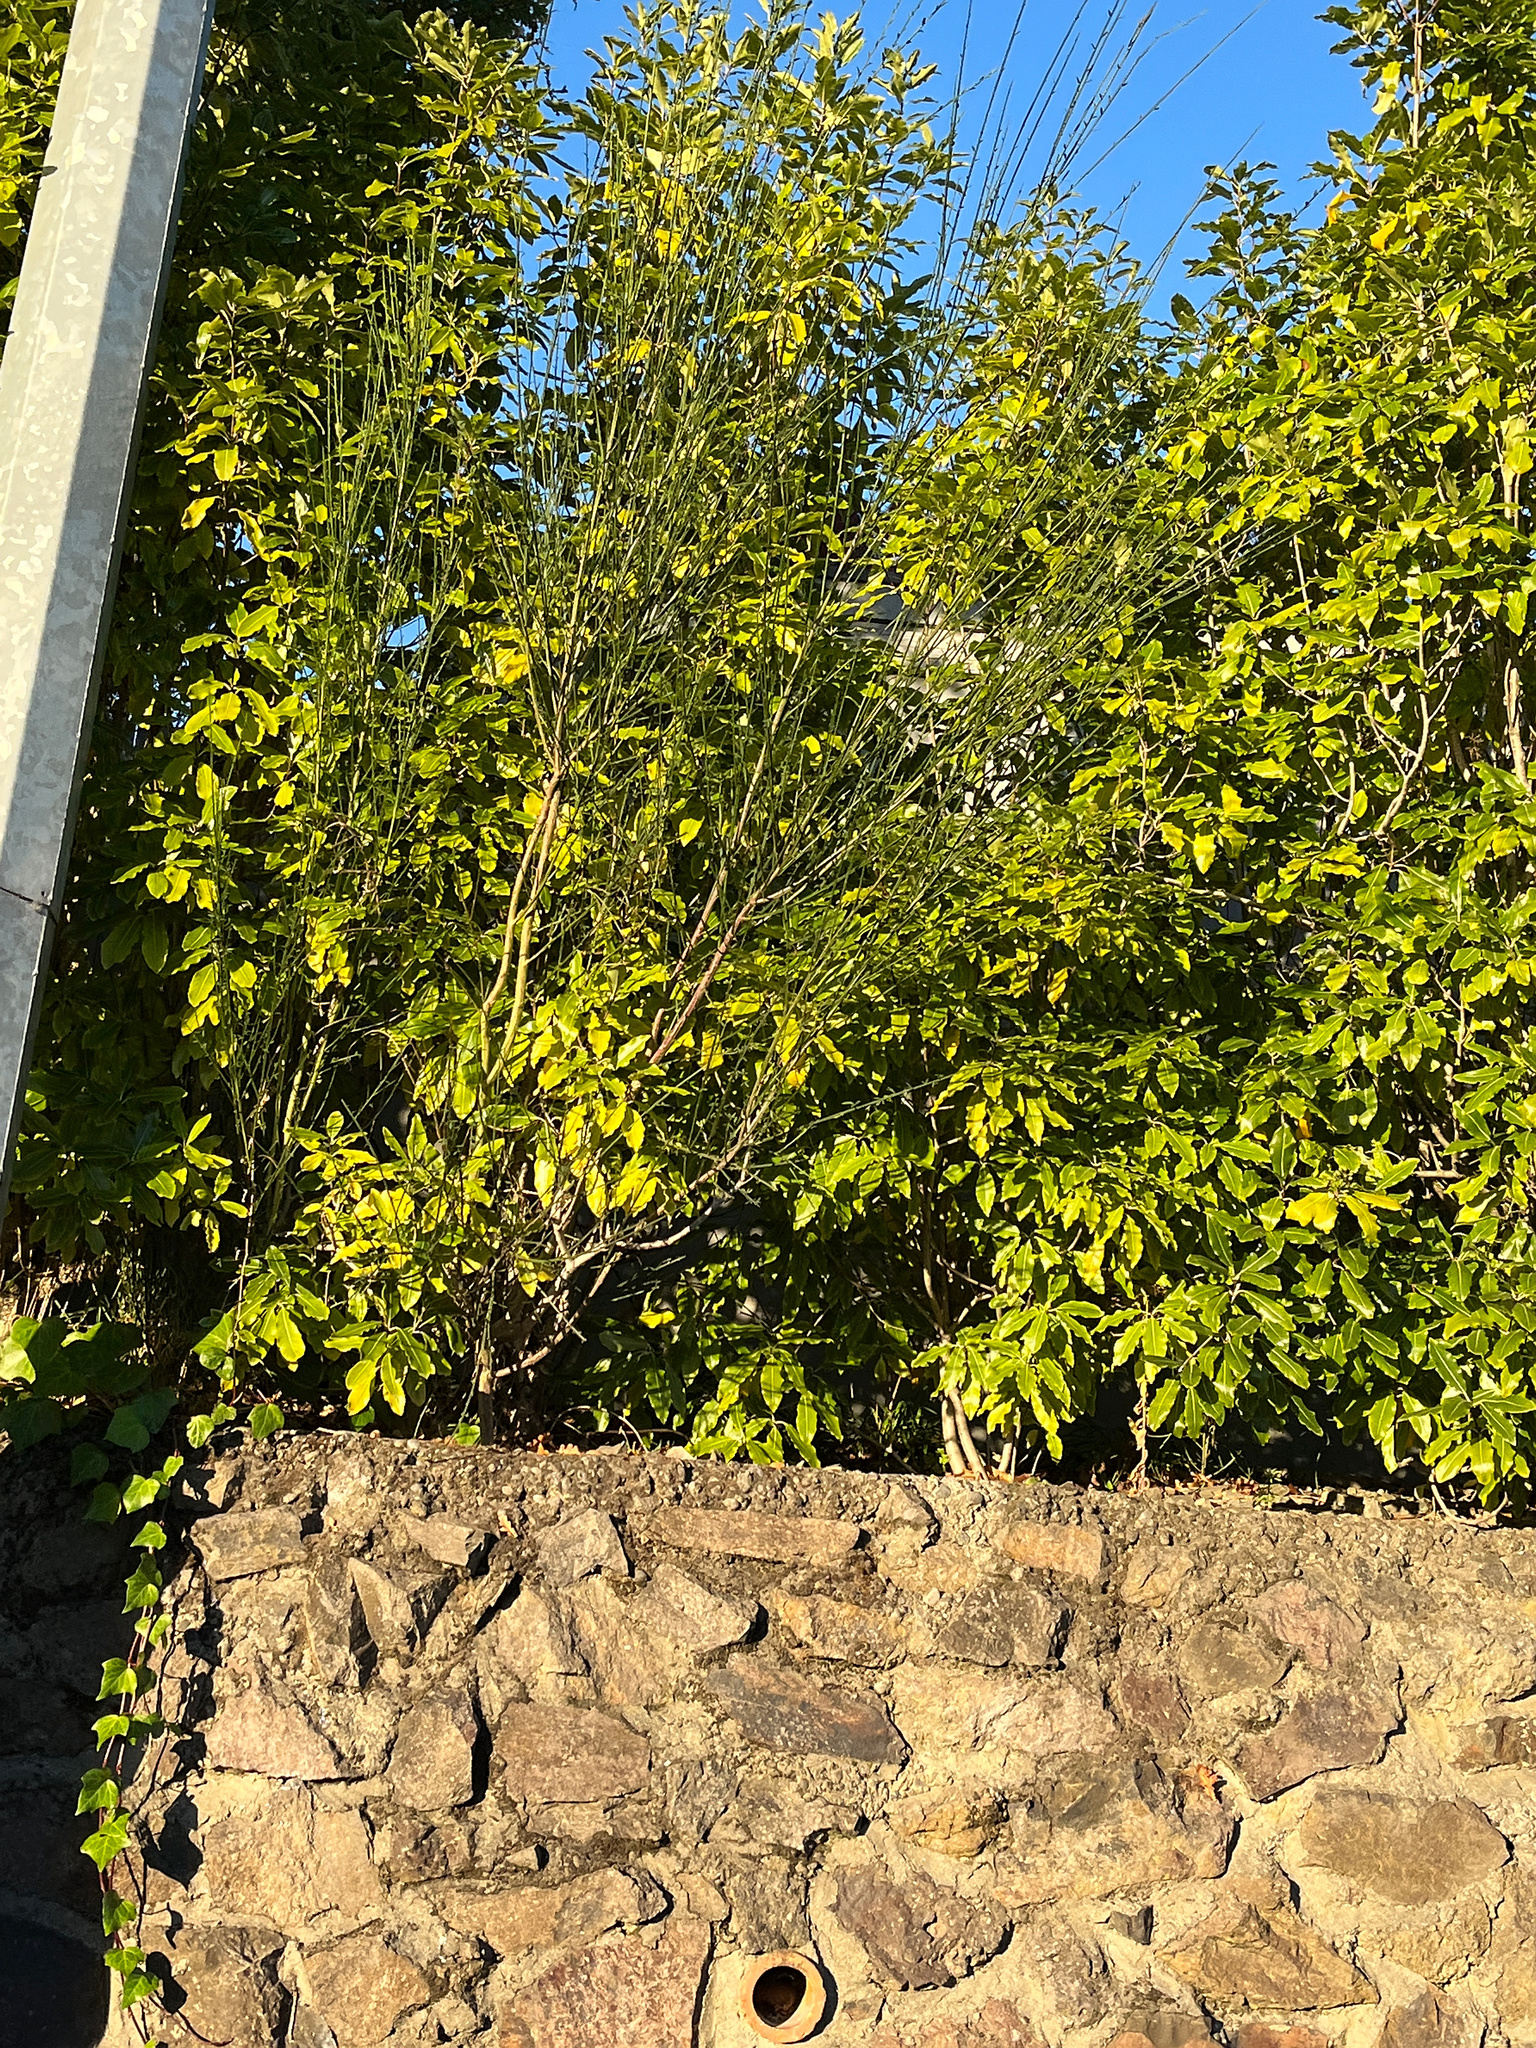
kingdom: Plantae
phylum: Tracheophyta
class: Magnoliopsida
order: Fabales
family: Fabaceae
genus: Cytisus
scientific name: Cytisus scoparius
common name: Scotch broom
